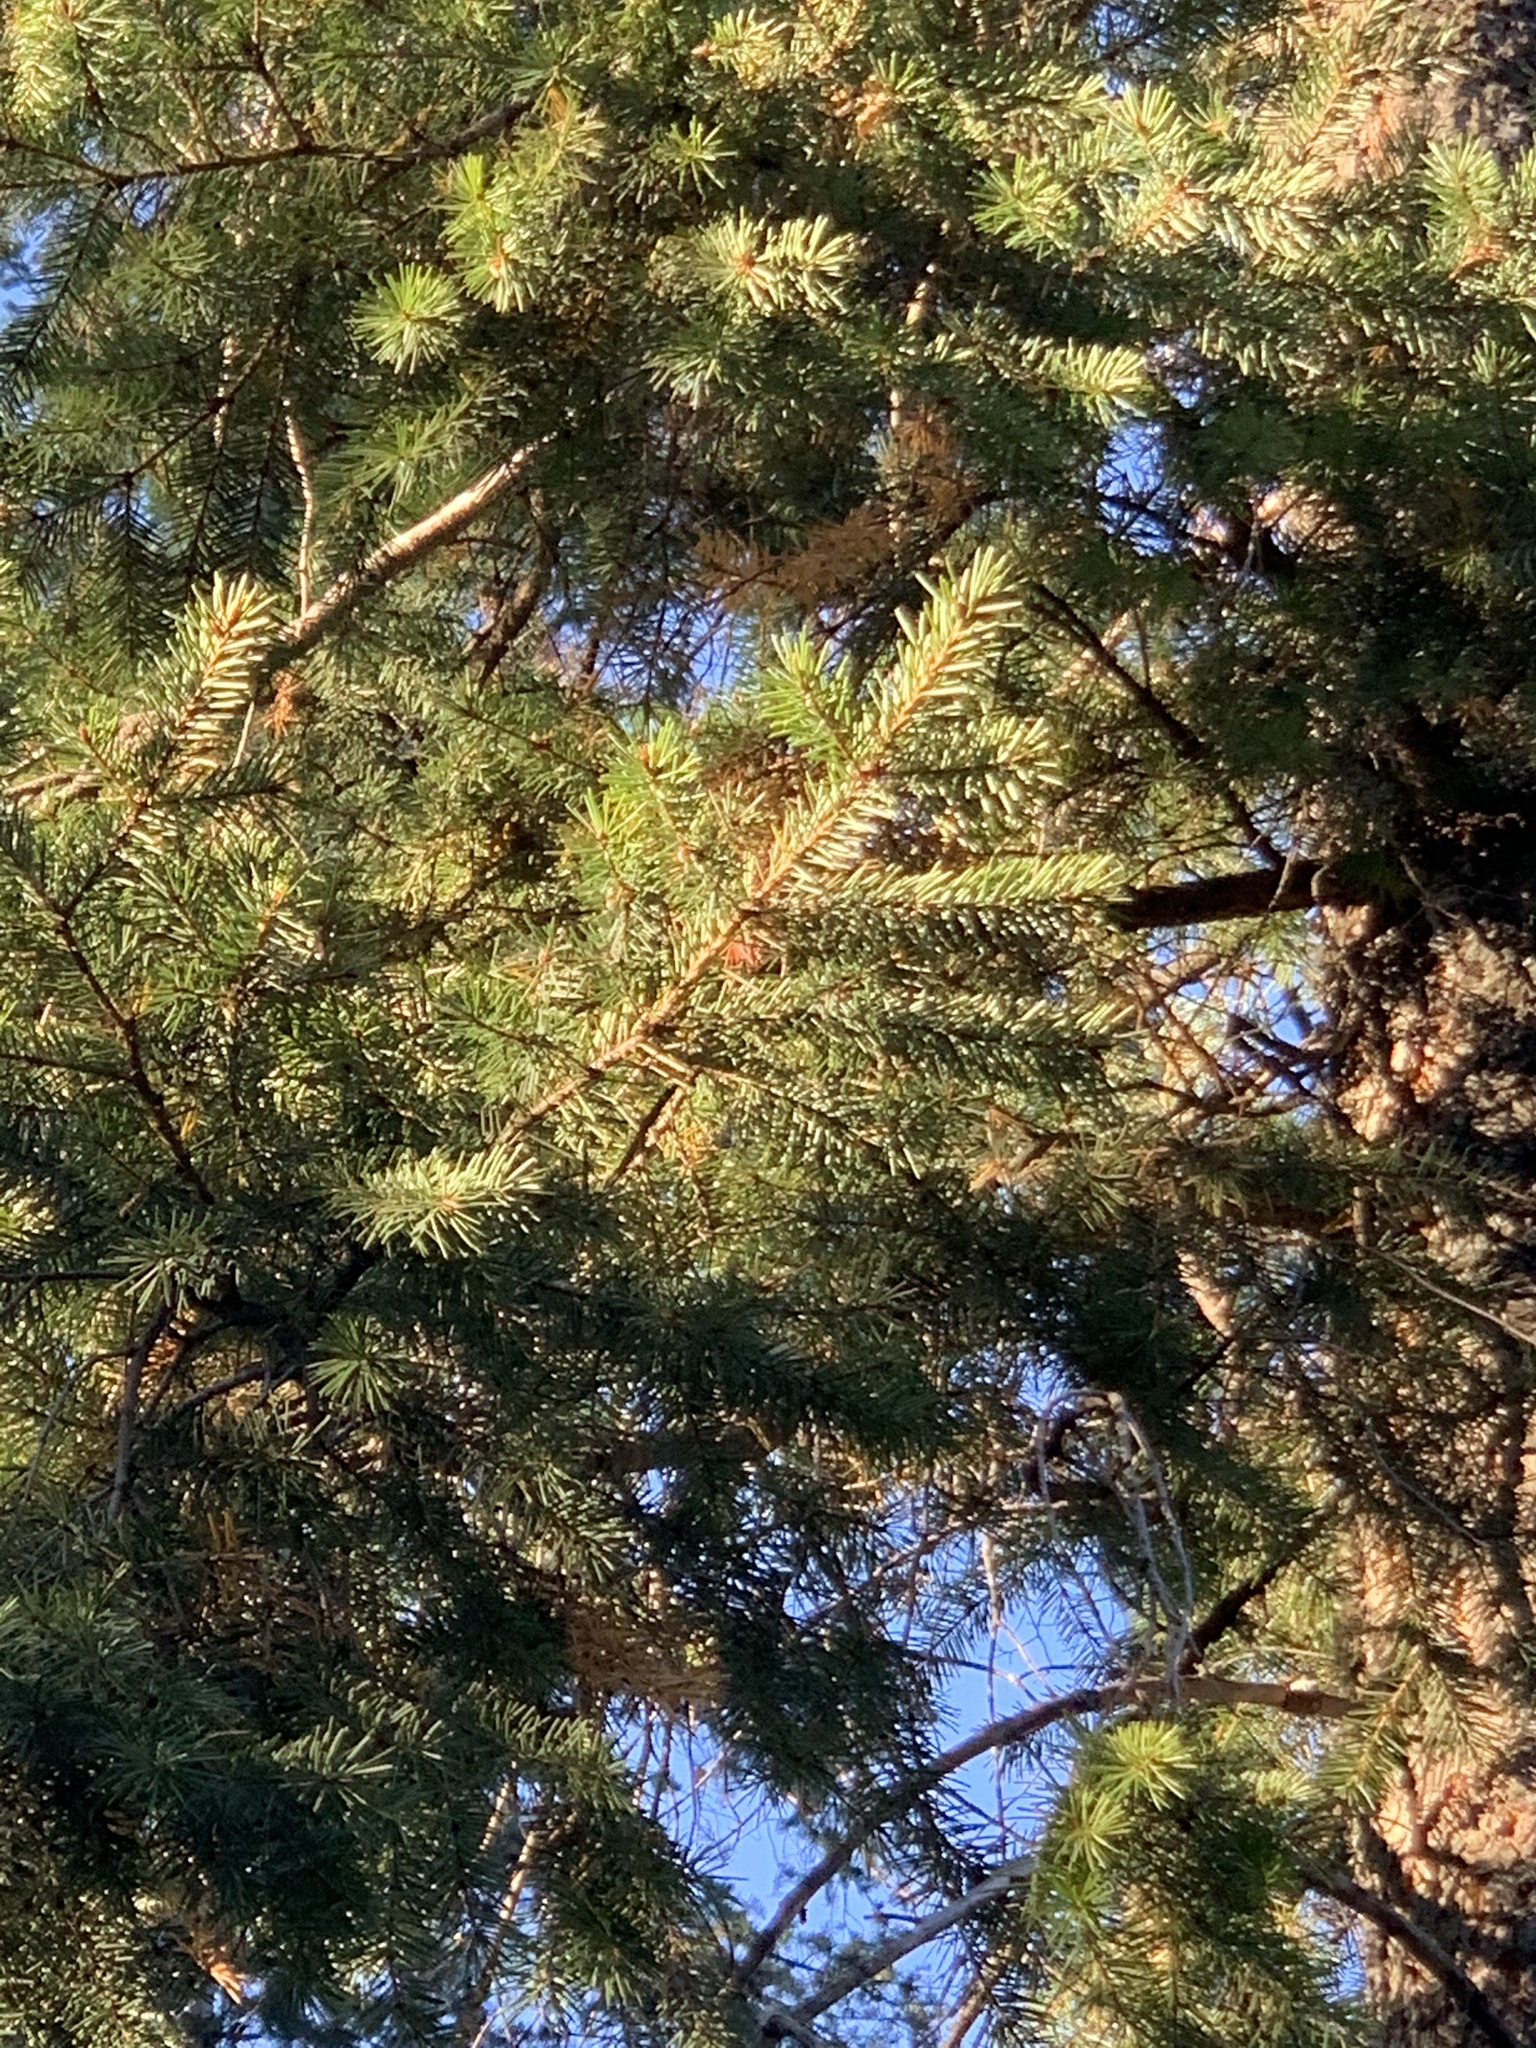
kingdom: Plantae
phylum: Tracheophyta
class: Pinopsida
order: Pinales
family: Pinaceae
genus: Pseudotsuga
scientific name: Pseudotsuga menziesii
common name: Douglas fir
